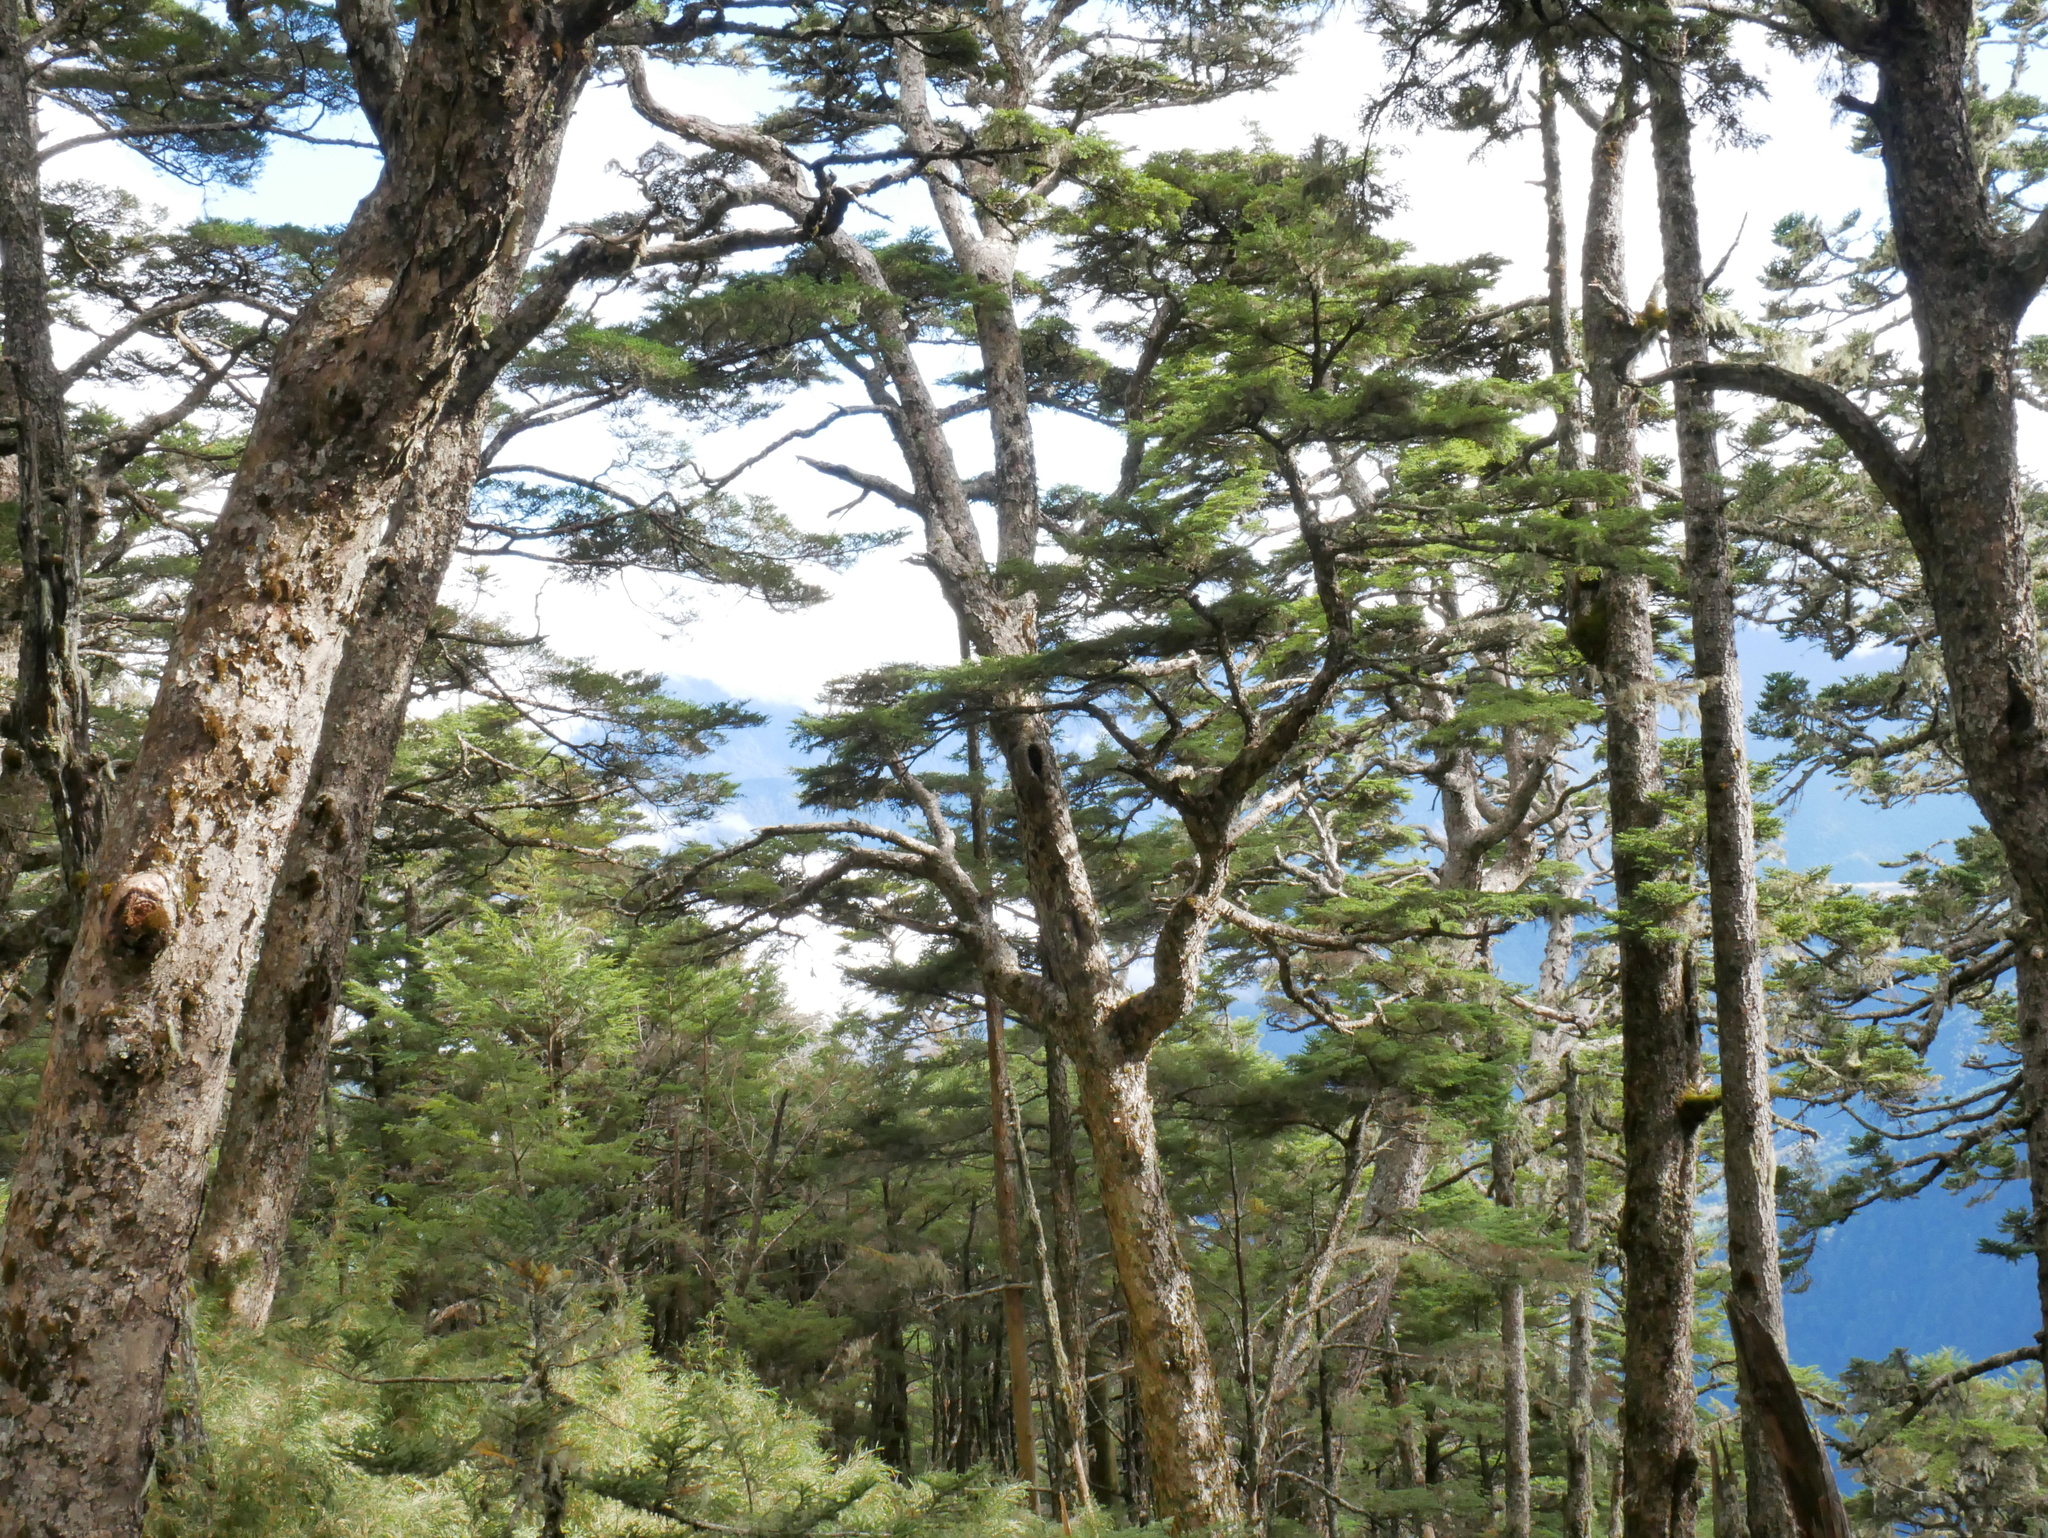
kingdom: Plantae
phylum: Tracheophyta
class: Pinopsida
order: Pinales
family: Pinaceae
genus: Tsuga
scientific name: Tsuga chinensis
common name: Chinese hemlock
